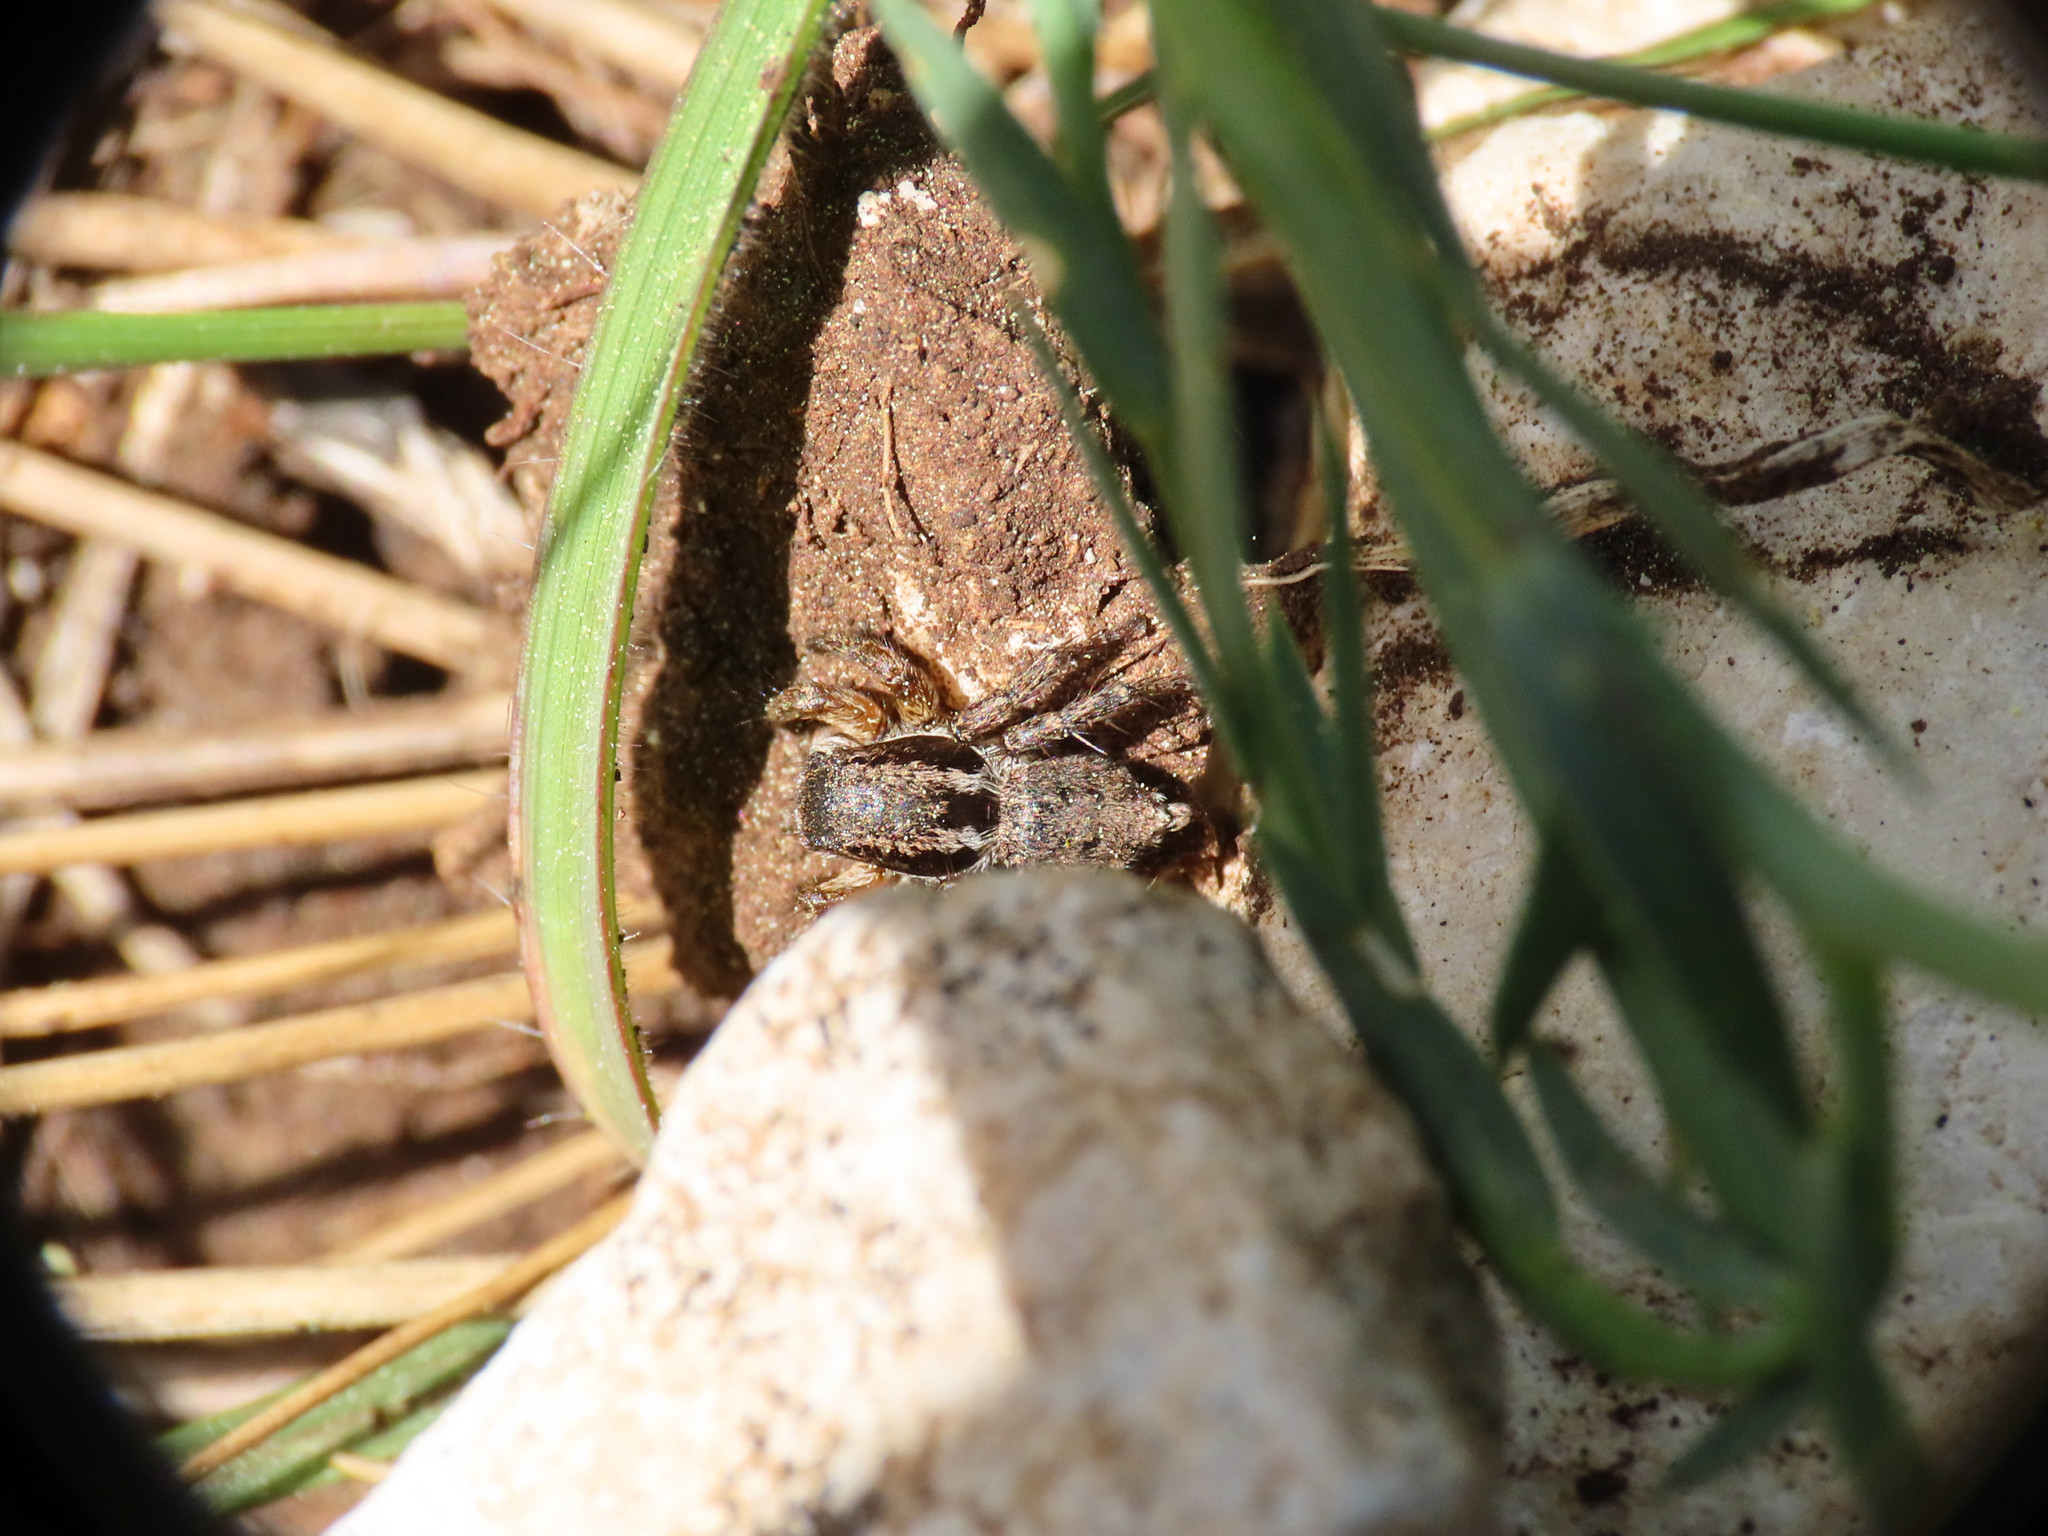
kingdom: Animalia
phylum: Arthropoda
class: Arachnida
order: Araneae
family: Salticidae
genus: Asianellus
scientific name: Asianellus festivus
